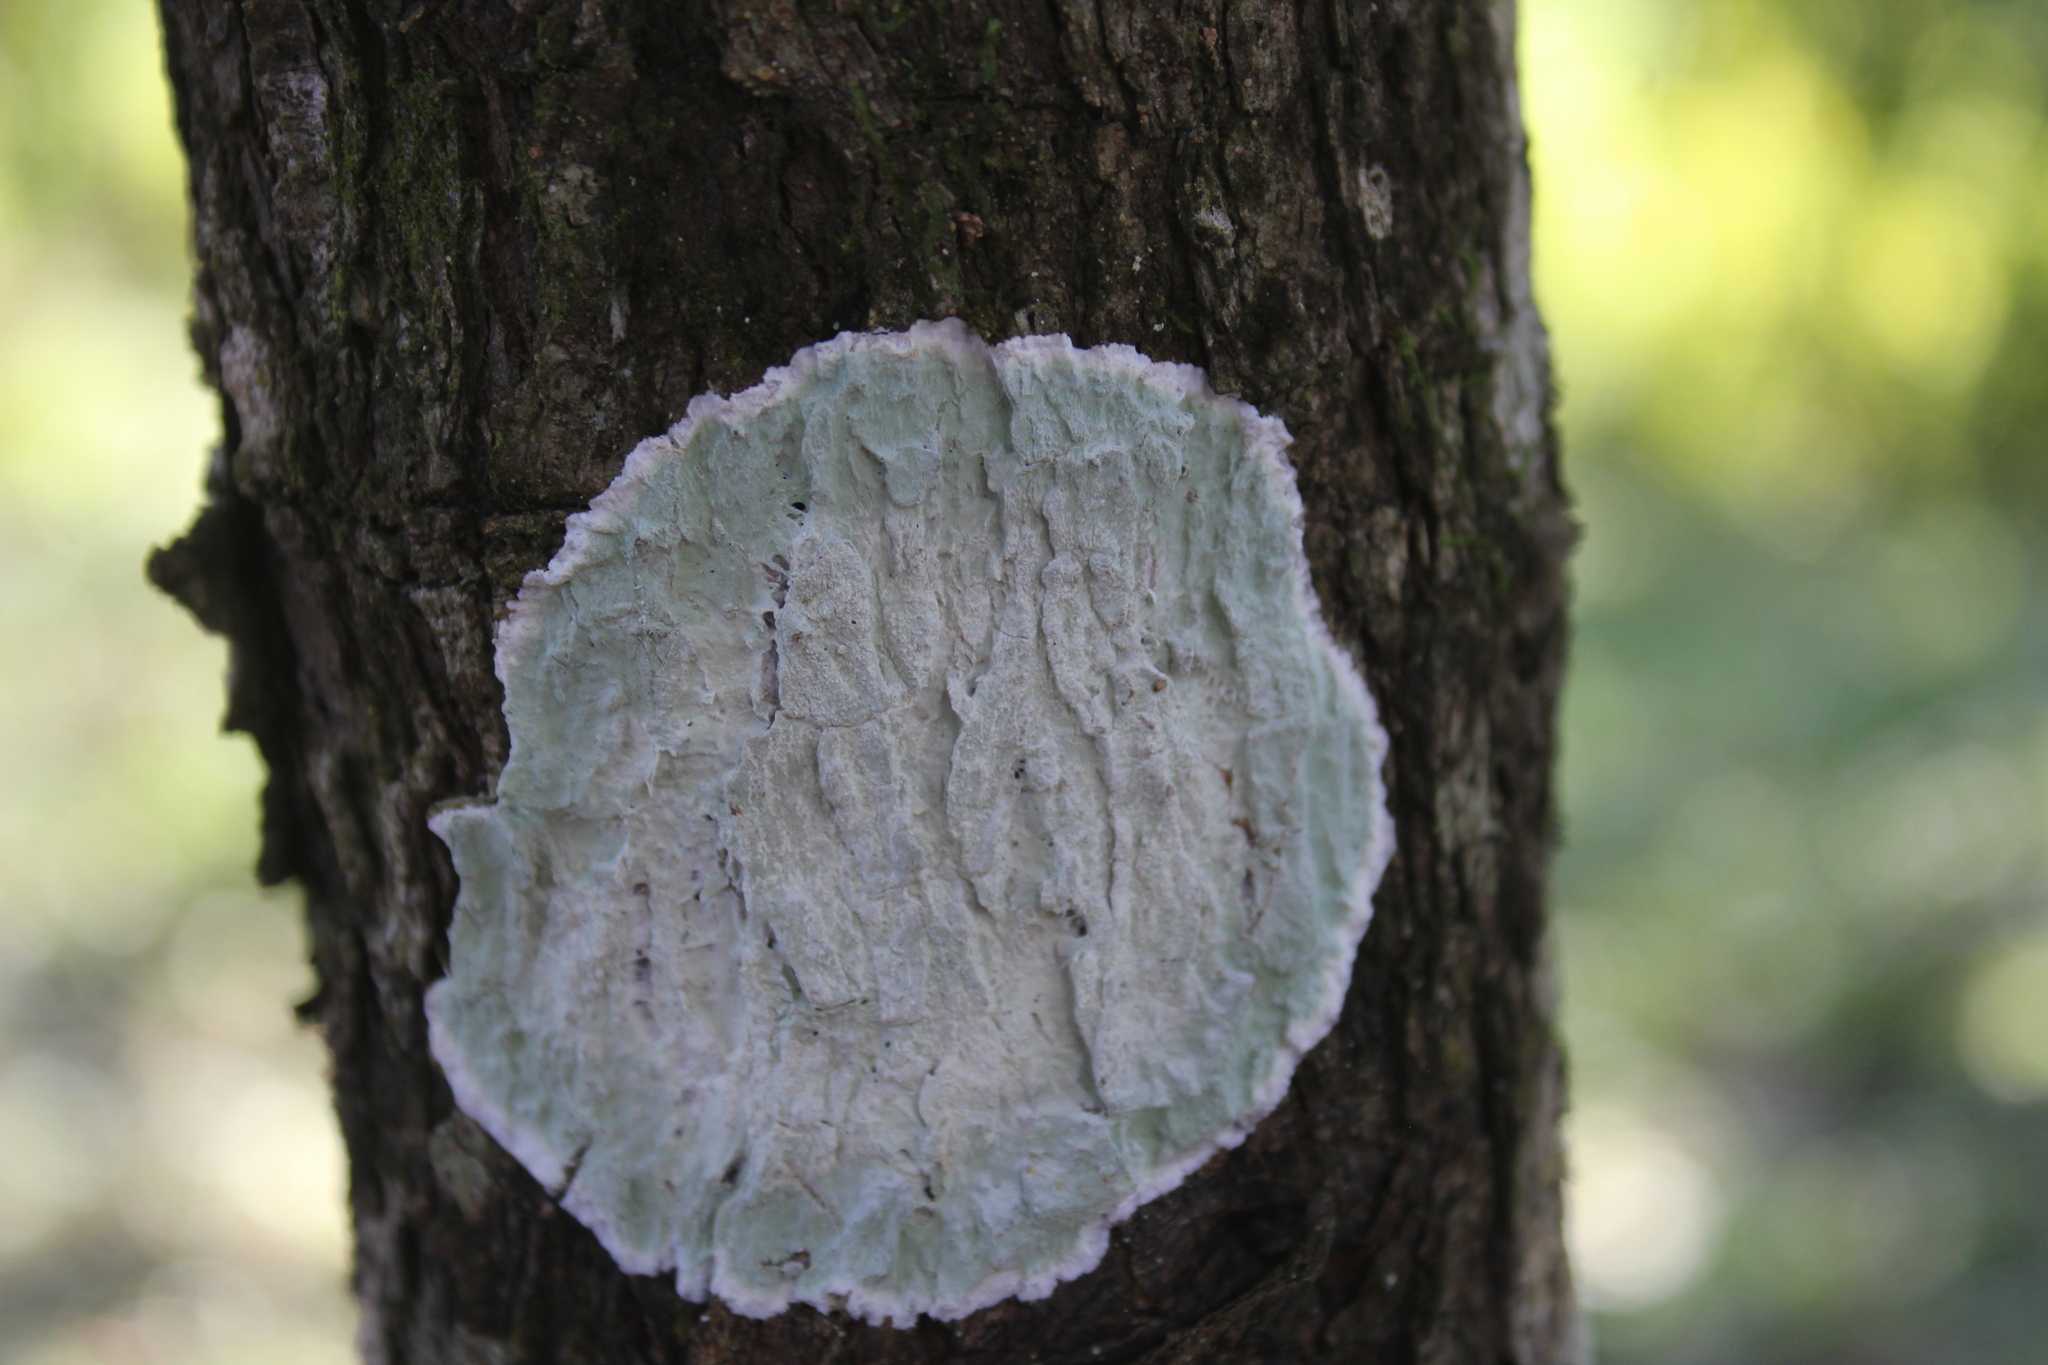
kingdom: Fungi
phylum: Ascomycota
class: Arthoniomycetes
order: Arthoniales
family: Arthoniaceae
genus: Cryptothecia
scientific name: Cryptothecia striata
